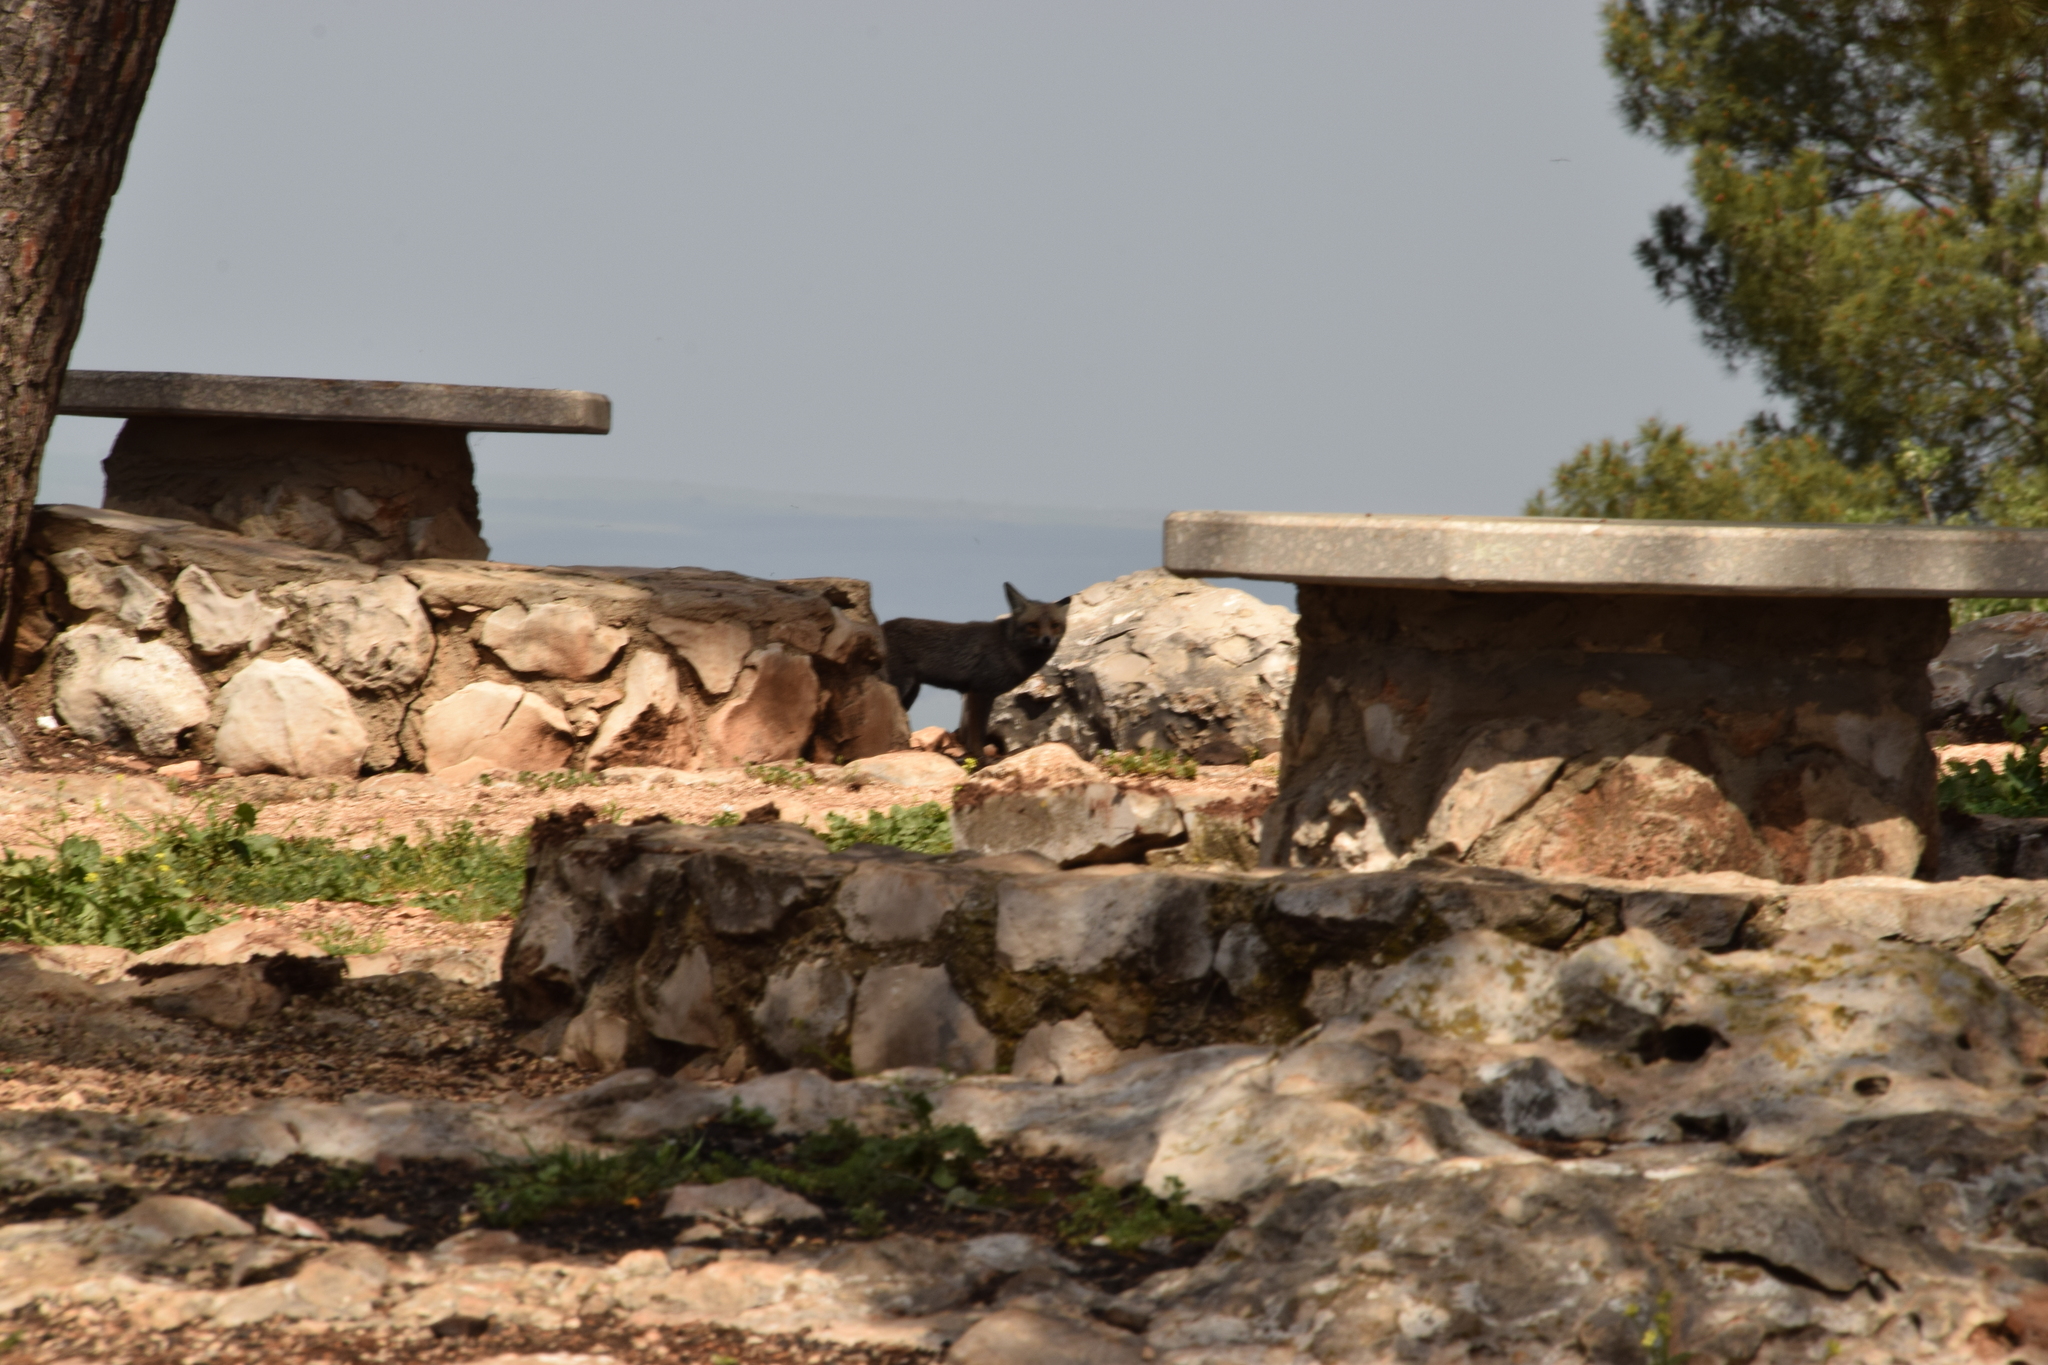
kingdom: Animalia
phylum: Chordata
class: Mammalia
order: Carnivora
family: Canidae
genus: Vulpes
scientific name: Vulpes vulpes
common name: Red fox
